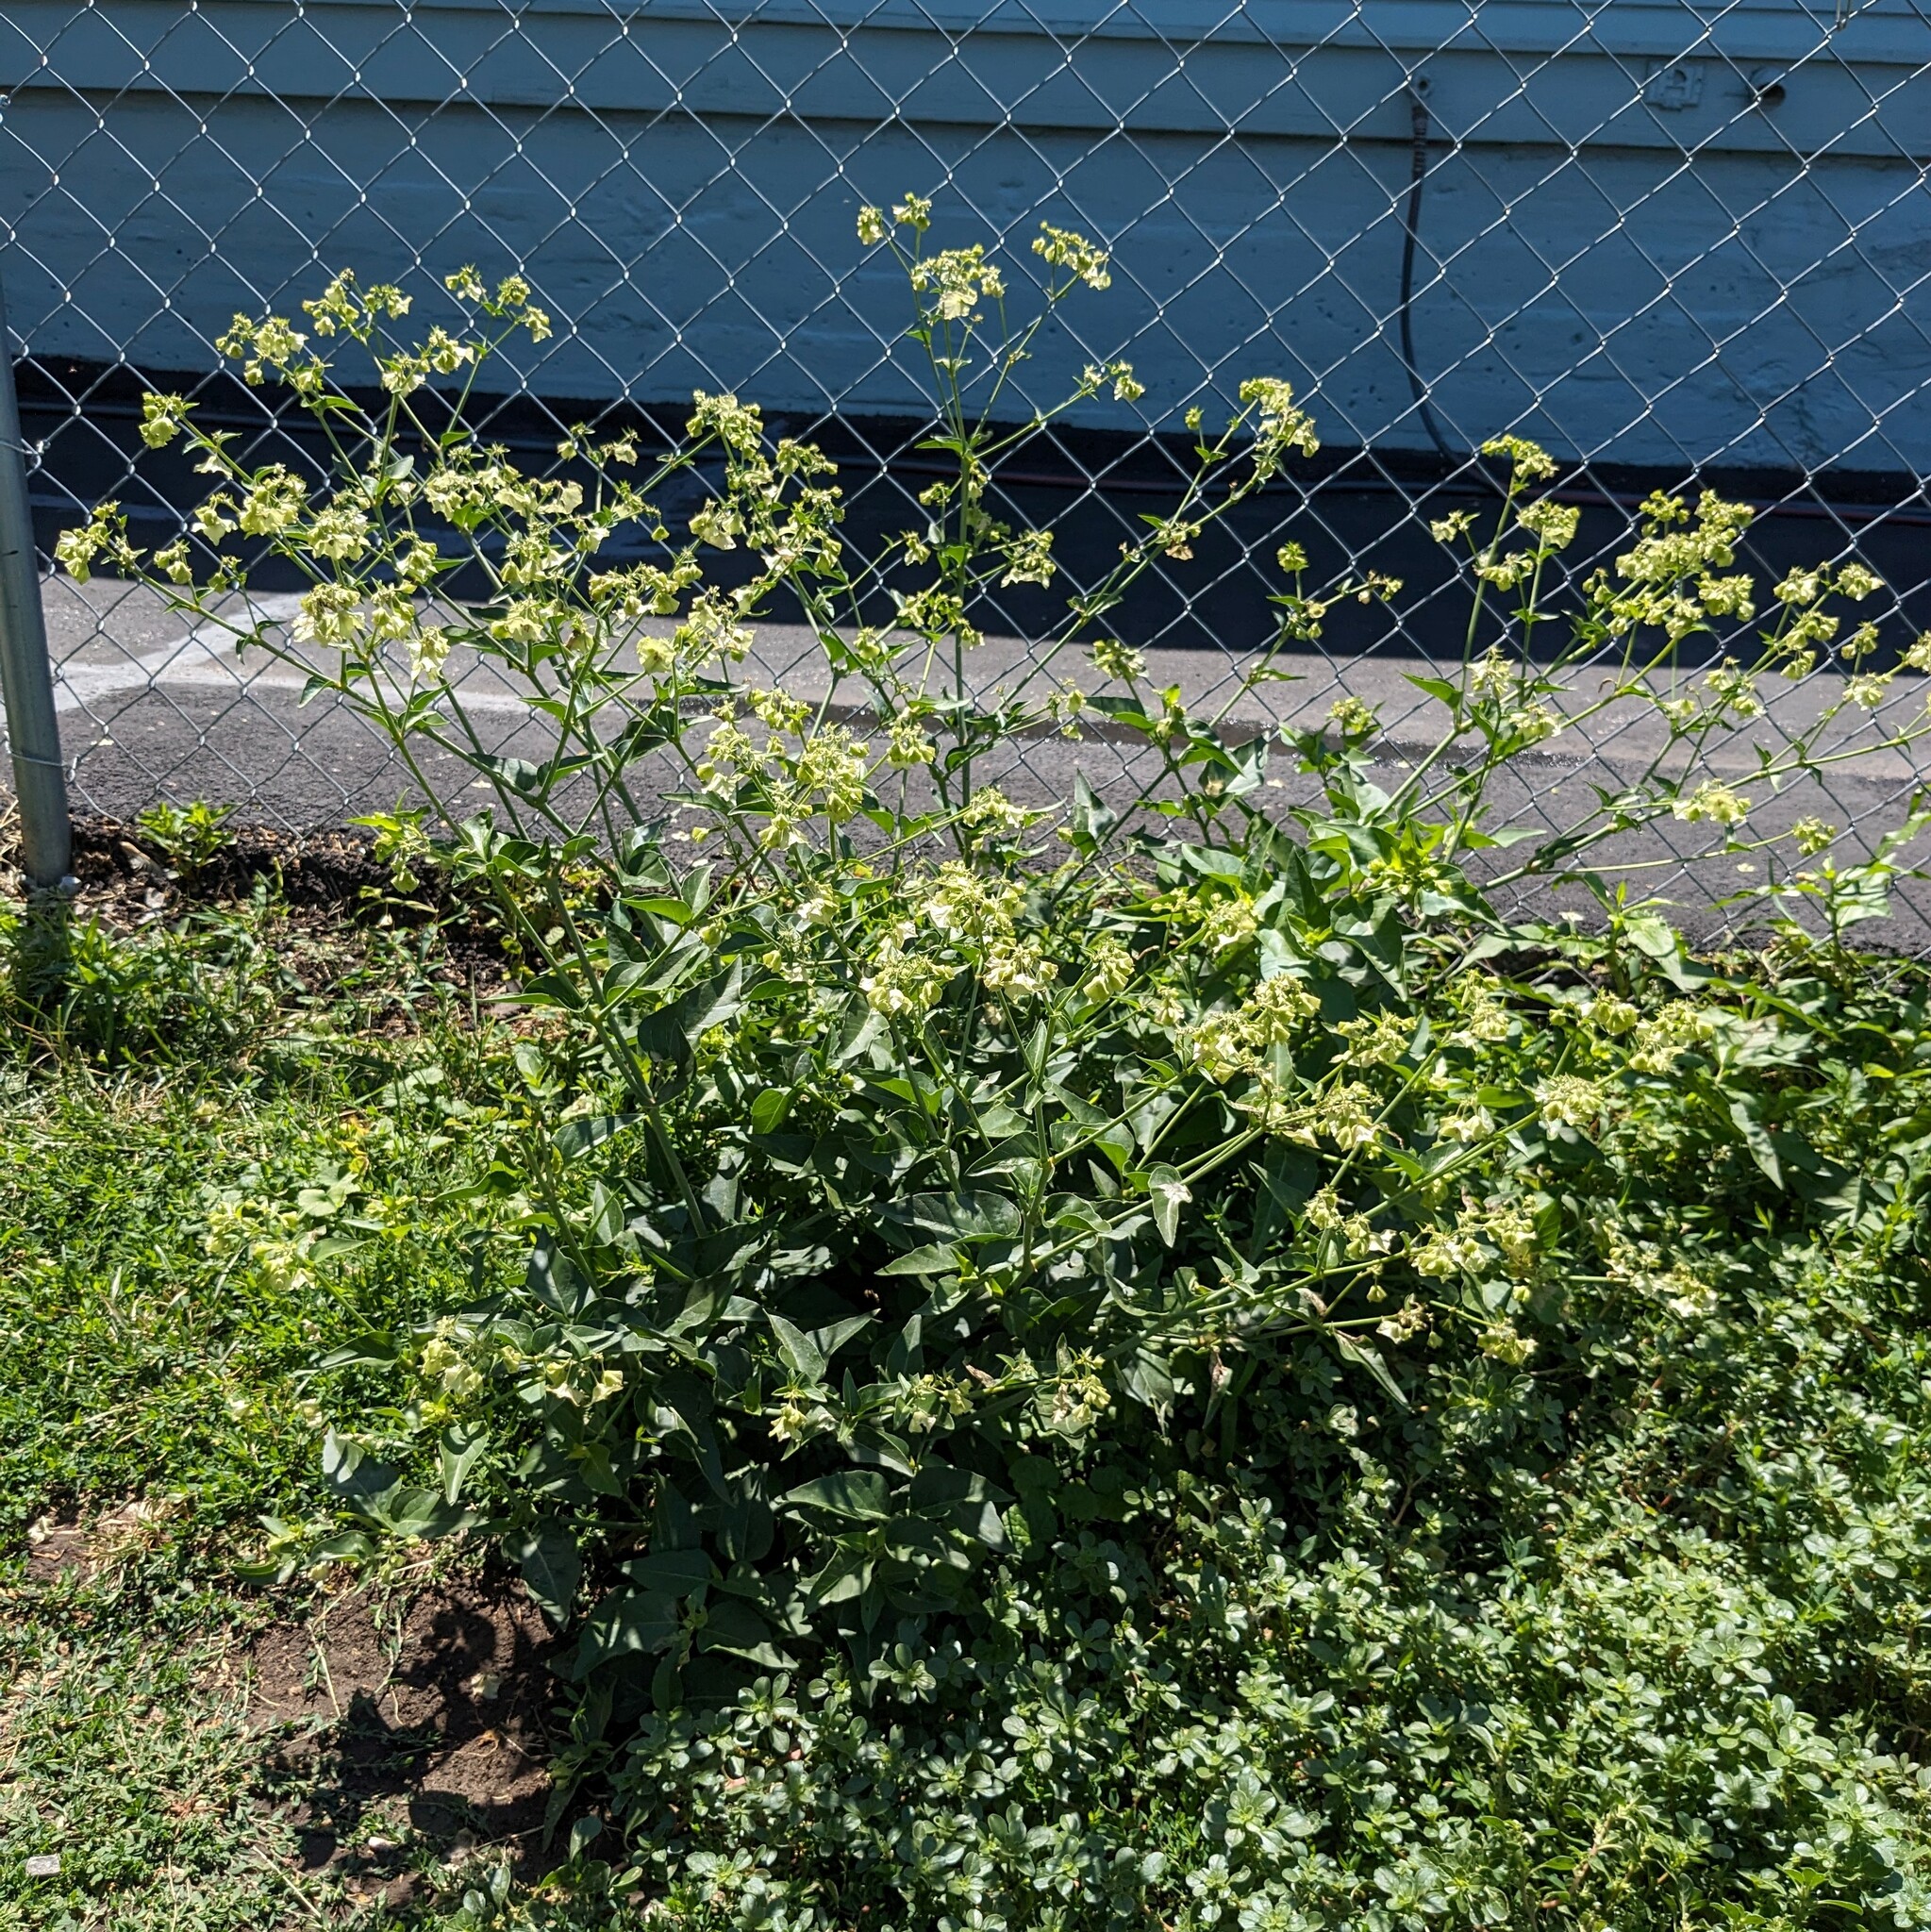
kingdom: Plantae
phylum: Tracheophyta
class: Magnoliopsida
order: Caryophyllales
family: Nyctaginaceae
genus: Mirabilis
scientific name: Mirabilis nyctaginea
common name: Umbrella wort
